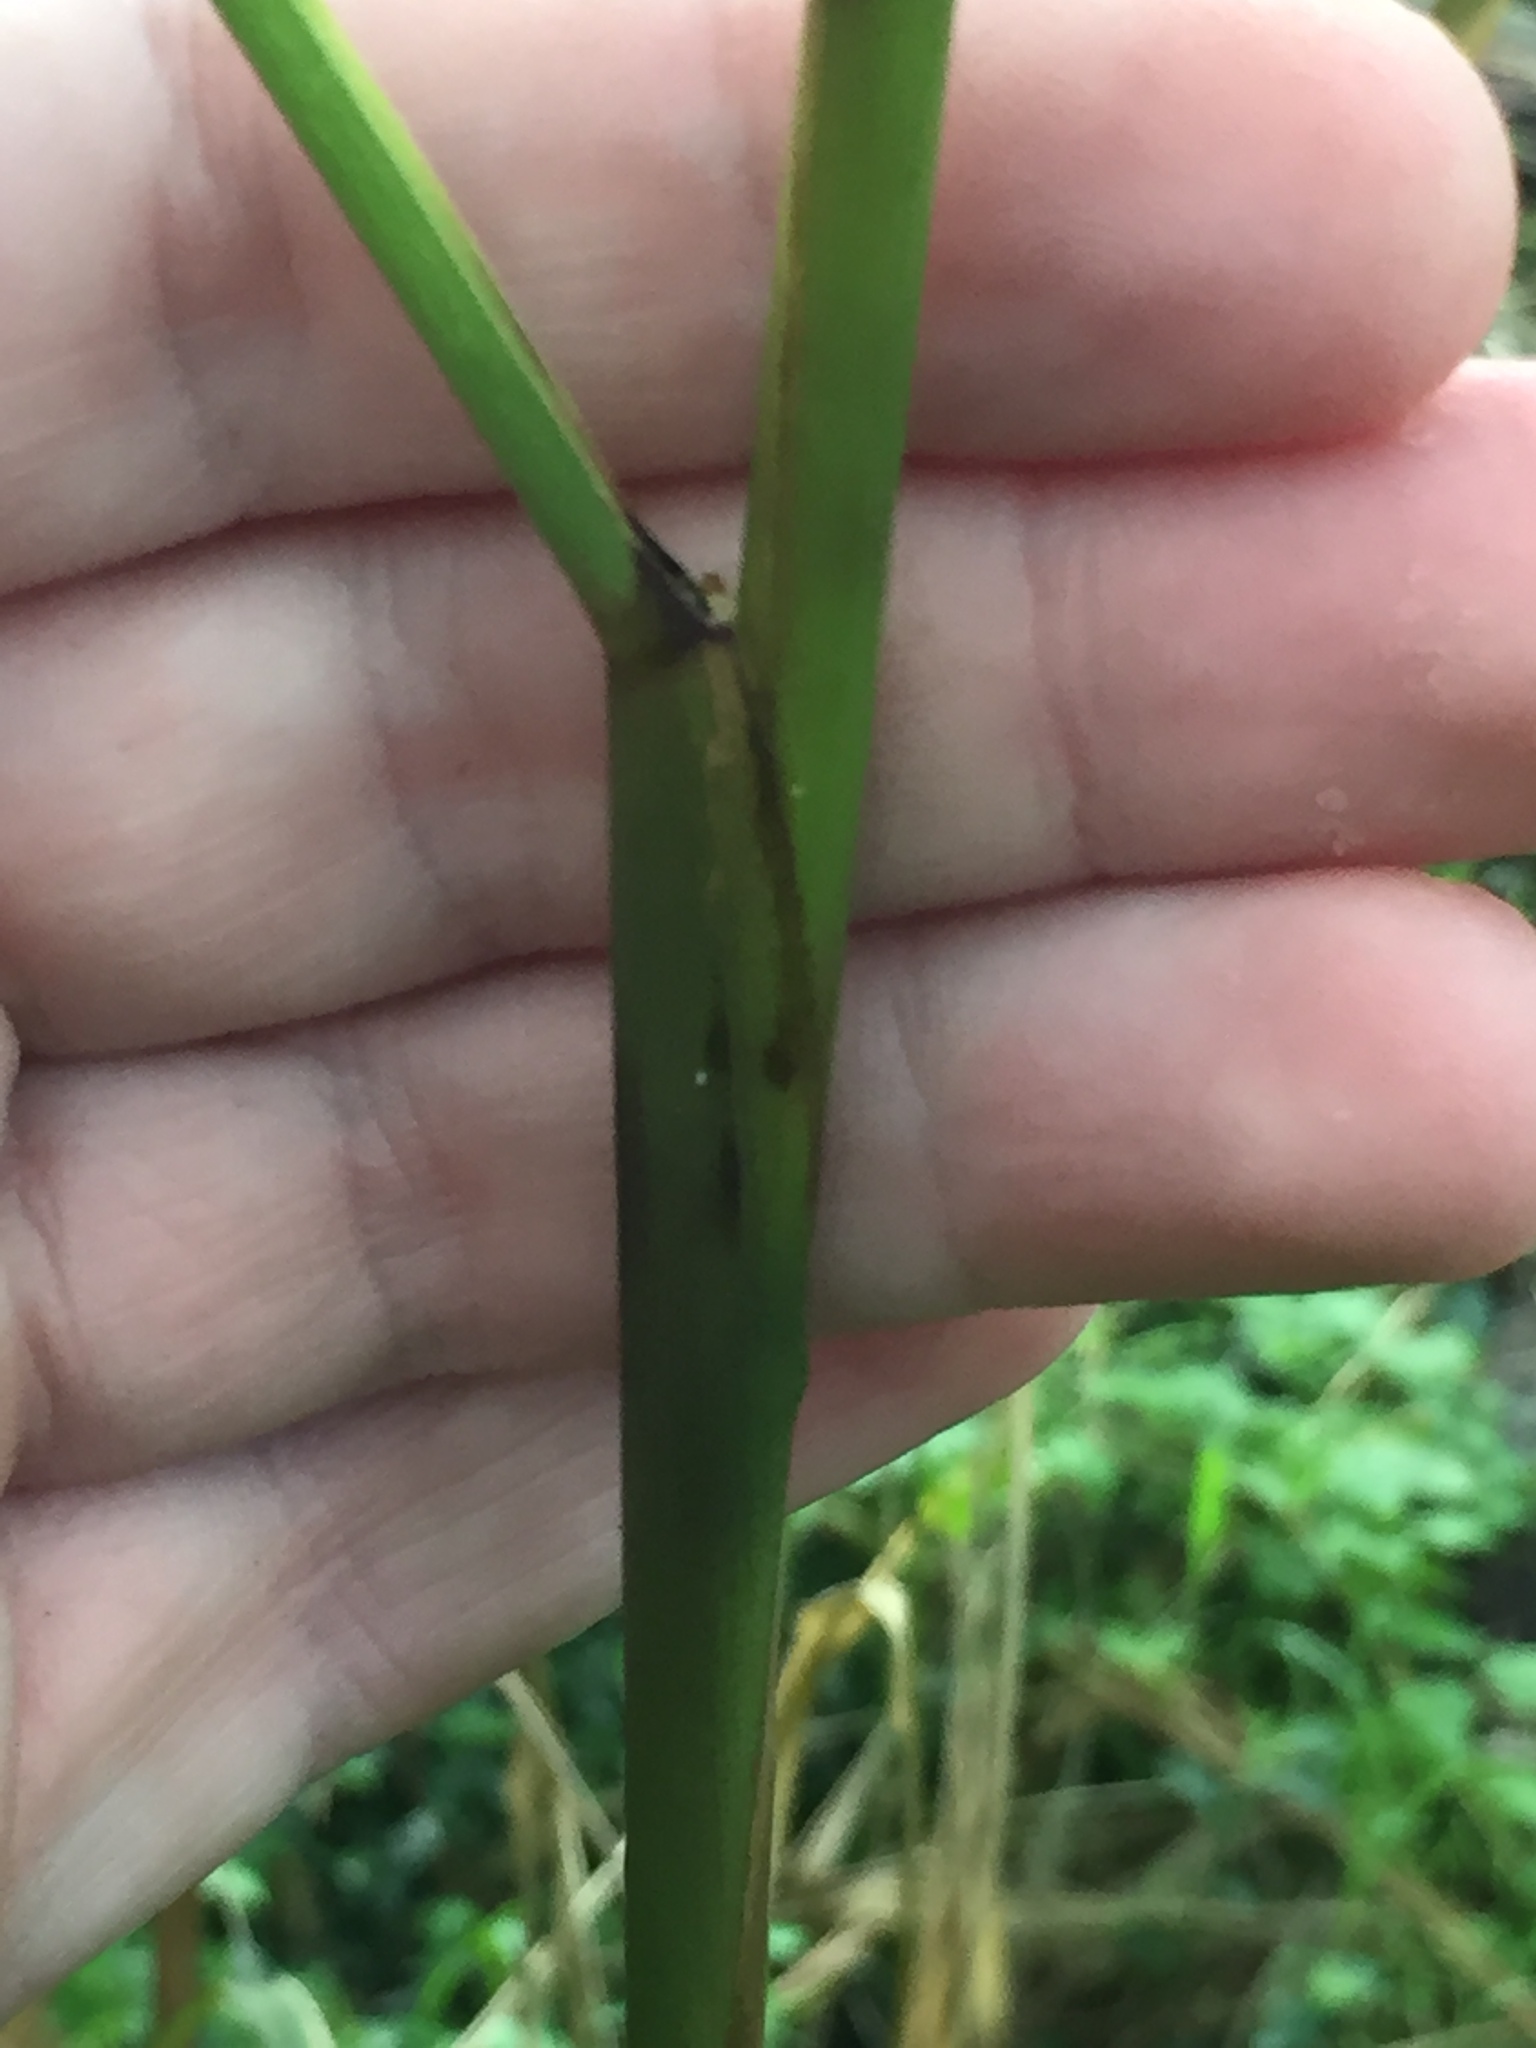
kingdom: Plantae
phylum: Tracheophyta
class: Liliopsida
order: Poales
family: Poaceae
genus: Cenchrus
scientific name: Cenchrus latifolius
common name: Sandbur
